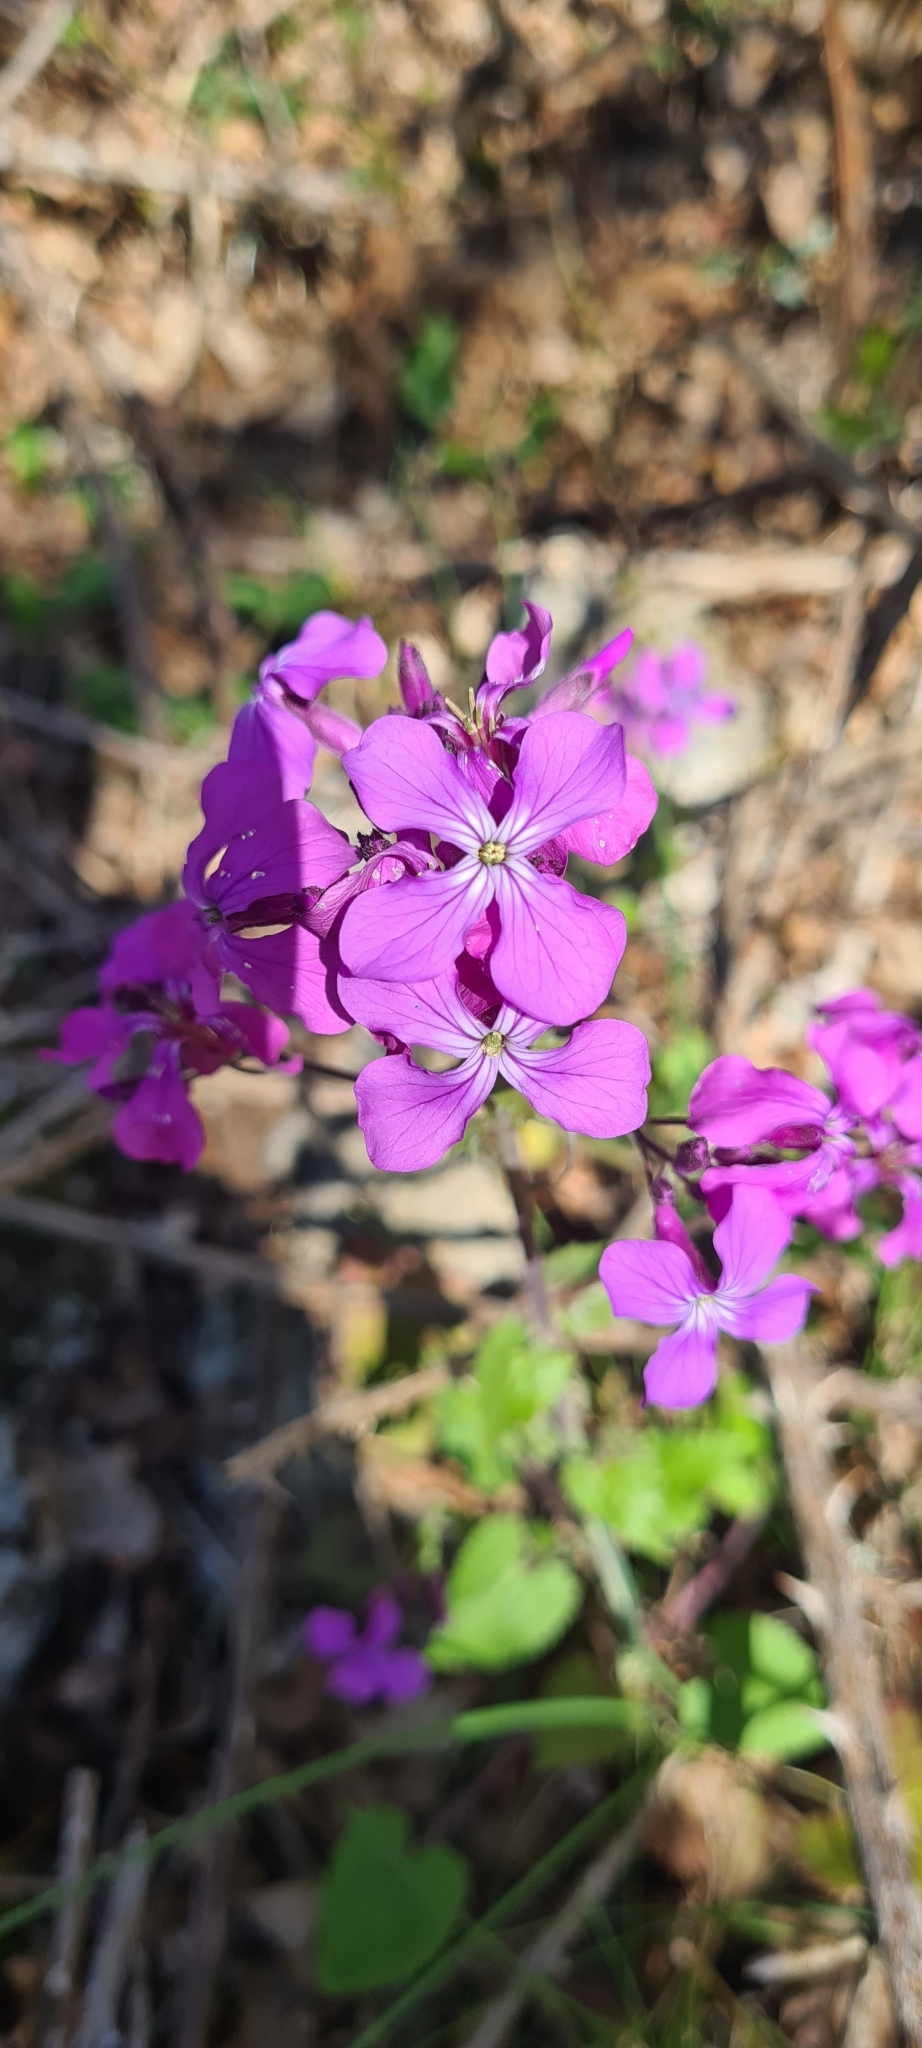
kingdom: Plantae
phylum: Tracheophyta
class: Magnoliopsida
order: Brassicales
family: Brassicaceae
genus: Lunaria
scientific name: Lunaria annua
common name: Honesty
